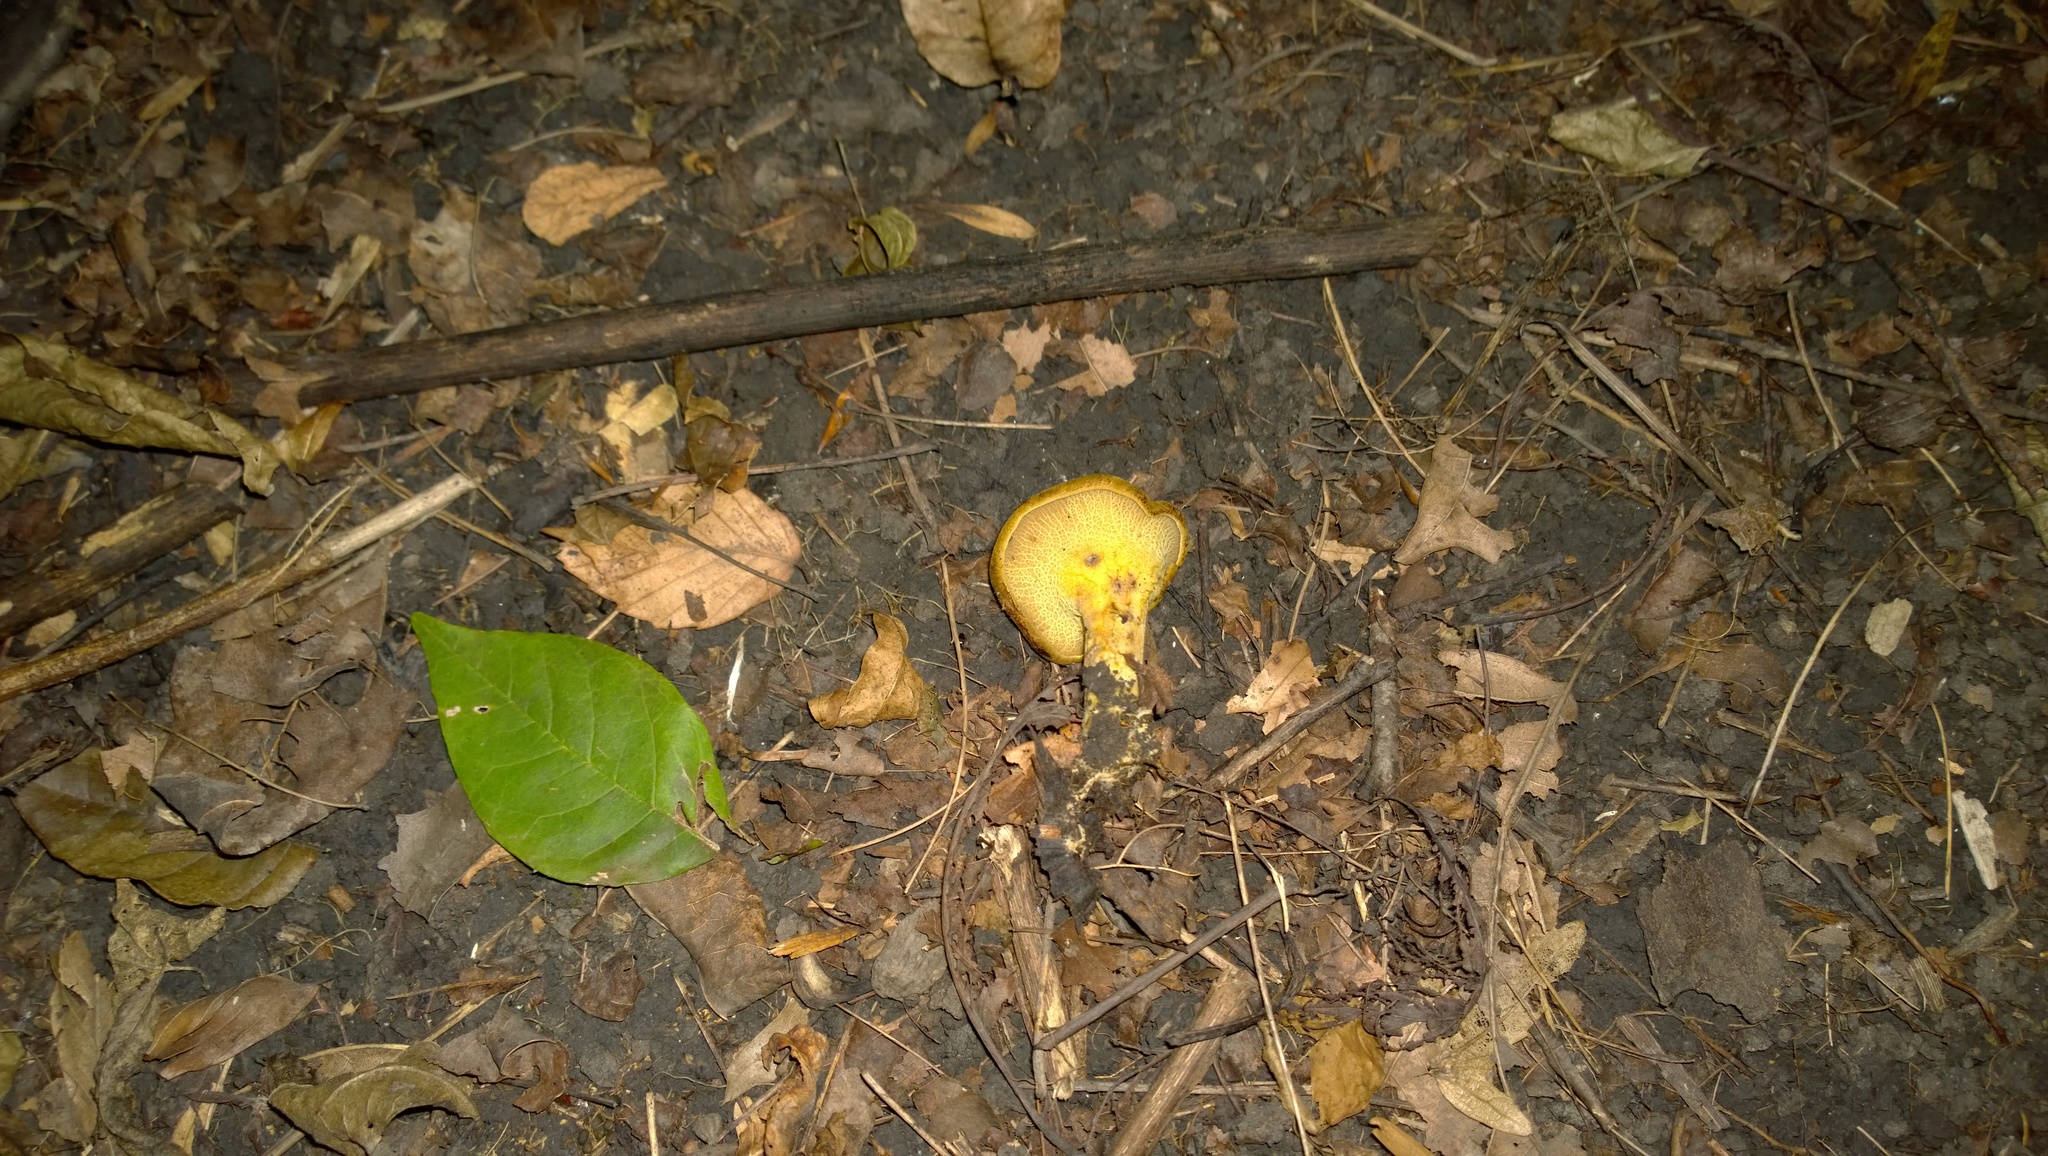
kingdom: Fungi
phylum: Basidiomycota
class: Agaricomycetes
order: Boletales
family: Boletinellaceae
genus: Boletinellus
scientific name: Boletinellus merulioides
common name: Ash tree bolete
